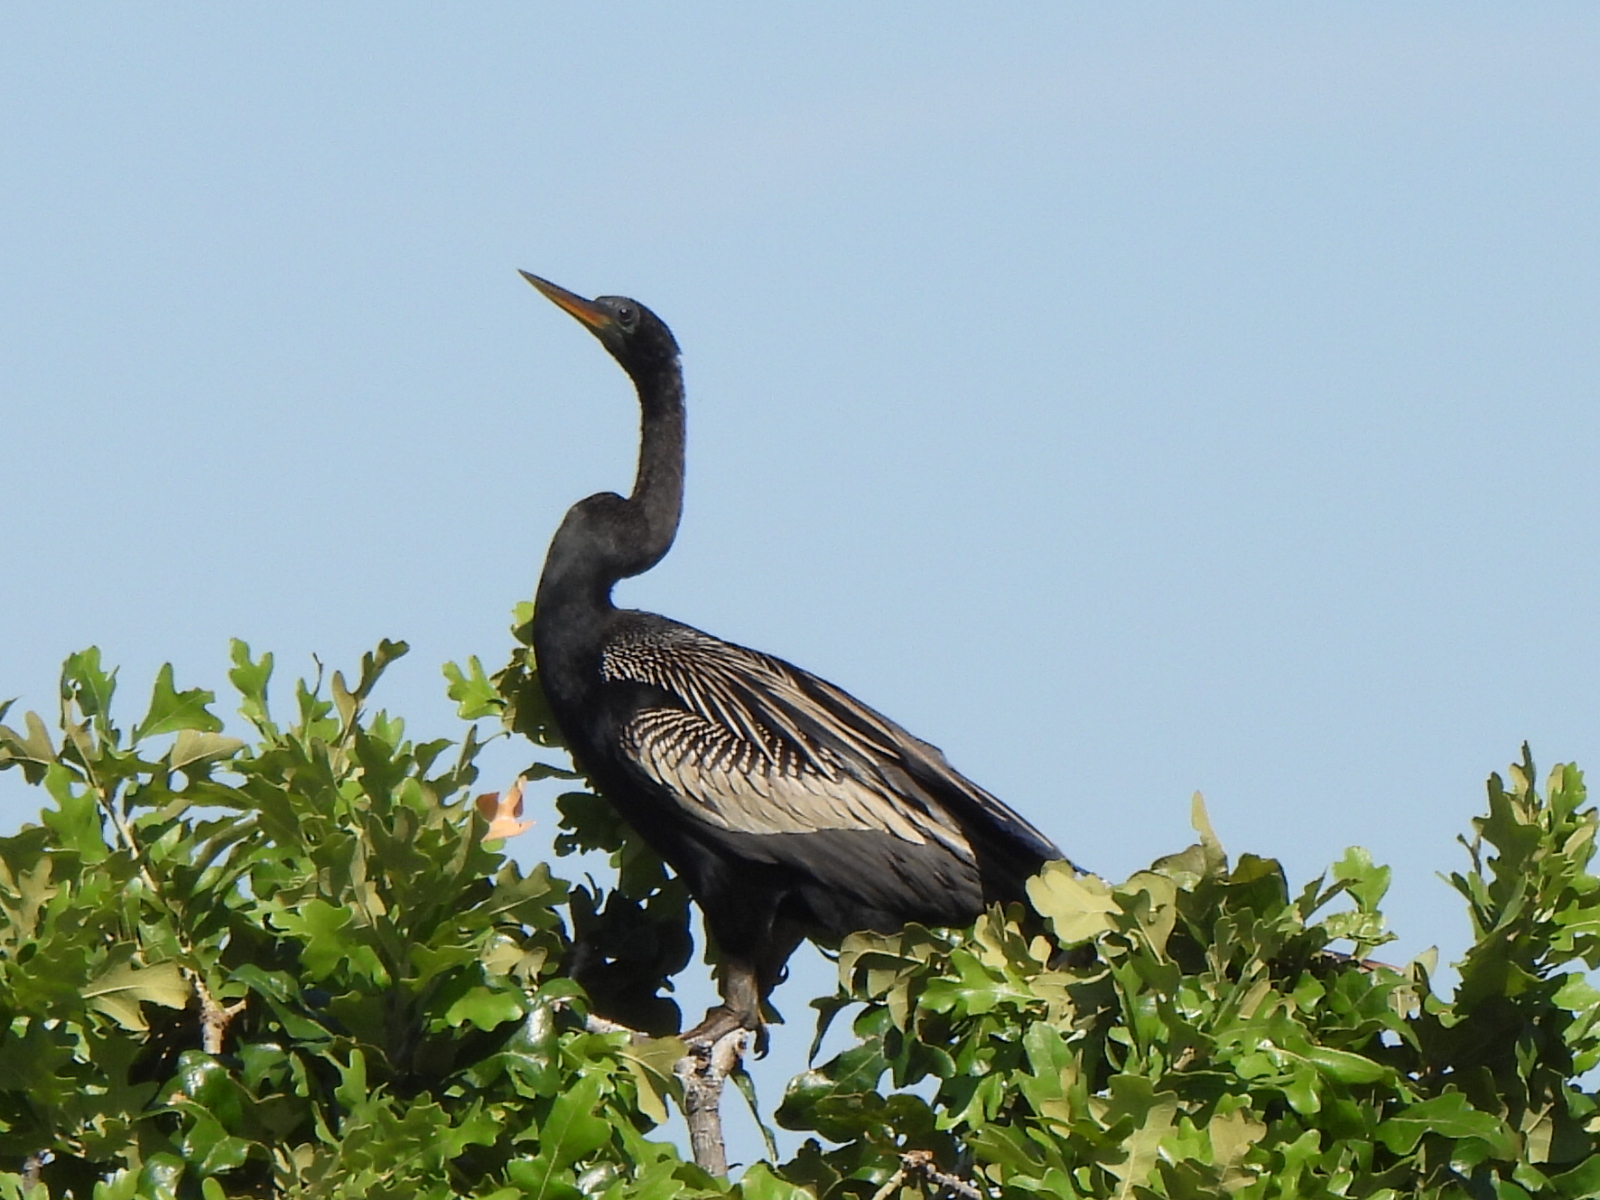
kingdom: Animalia
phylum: Chordata
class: Aves
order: Suliformes
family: Anhingidae
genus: Anhinga
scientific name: Anhinga anhinga
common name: Anhinga
